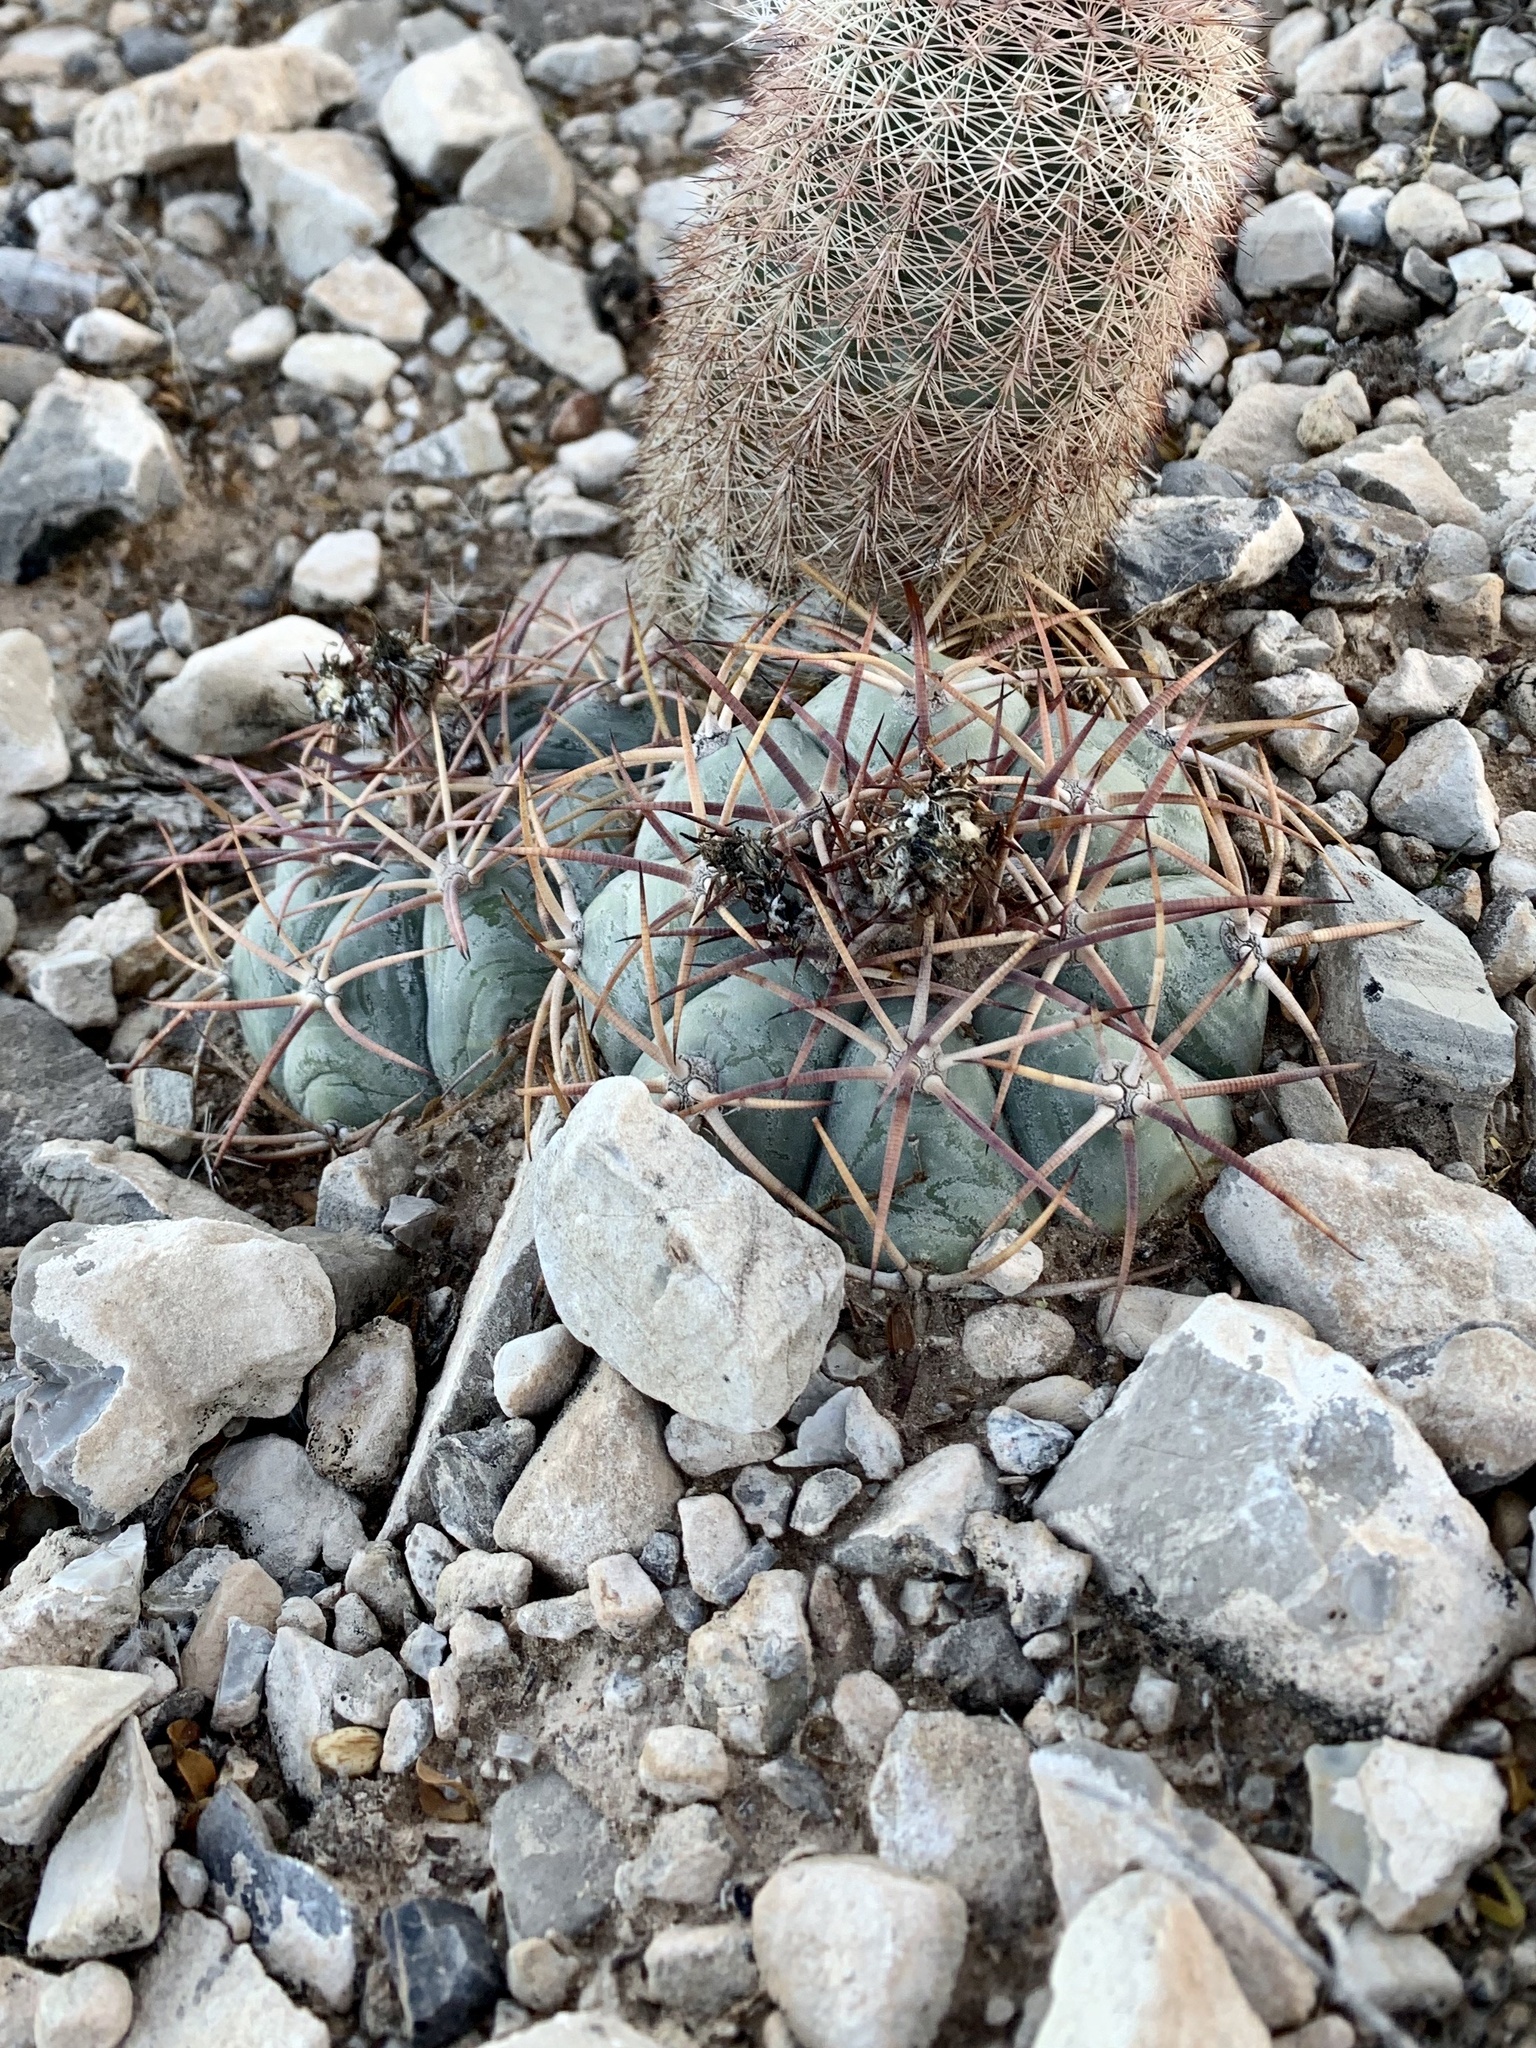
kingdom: Plantae
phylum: Tracheophyta
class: Magnoliopsida
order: Caryophyllales
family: Cactaceae
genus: Echinocactus
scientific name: Echinocactus horizonthalonius
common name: Devilshead
